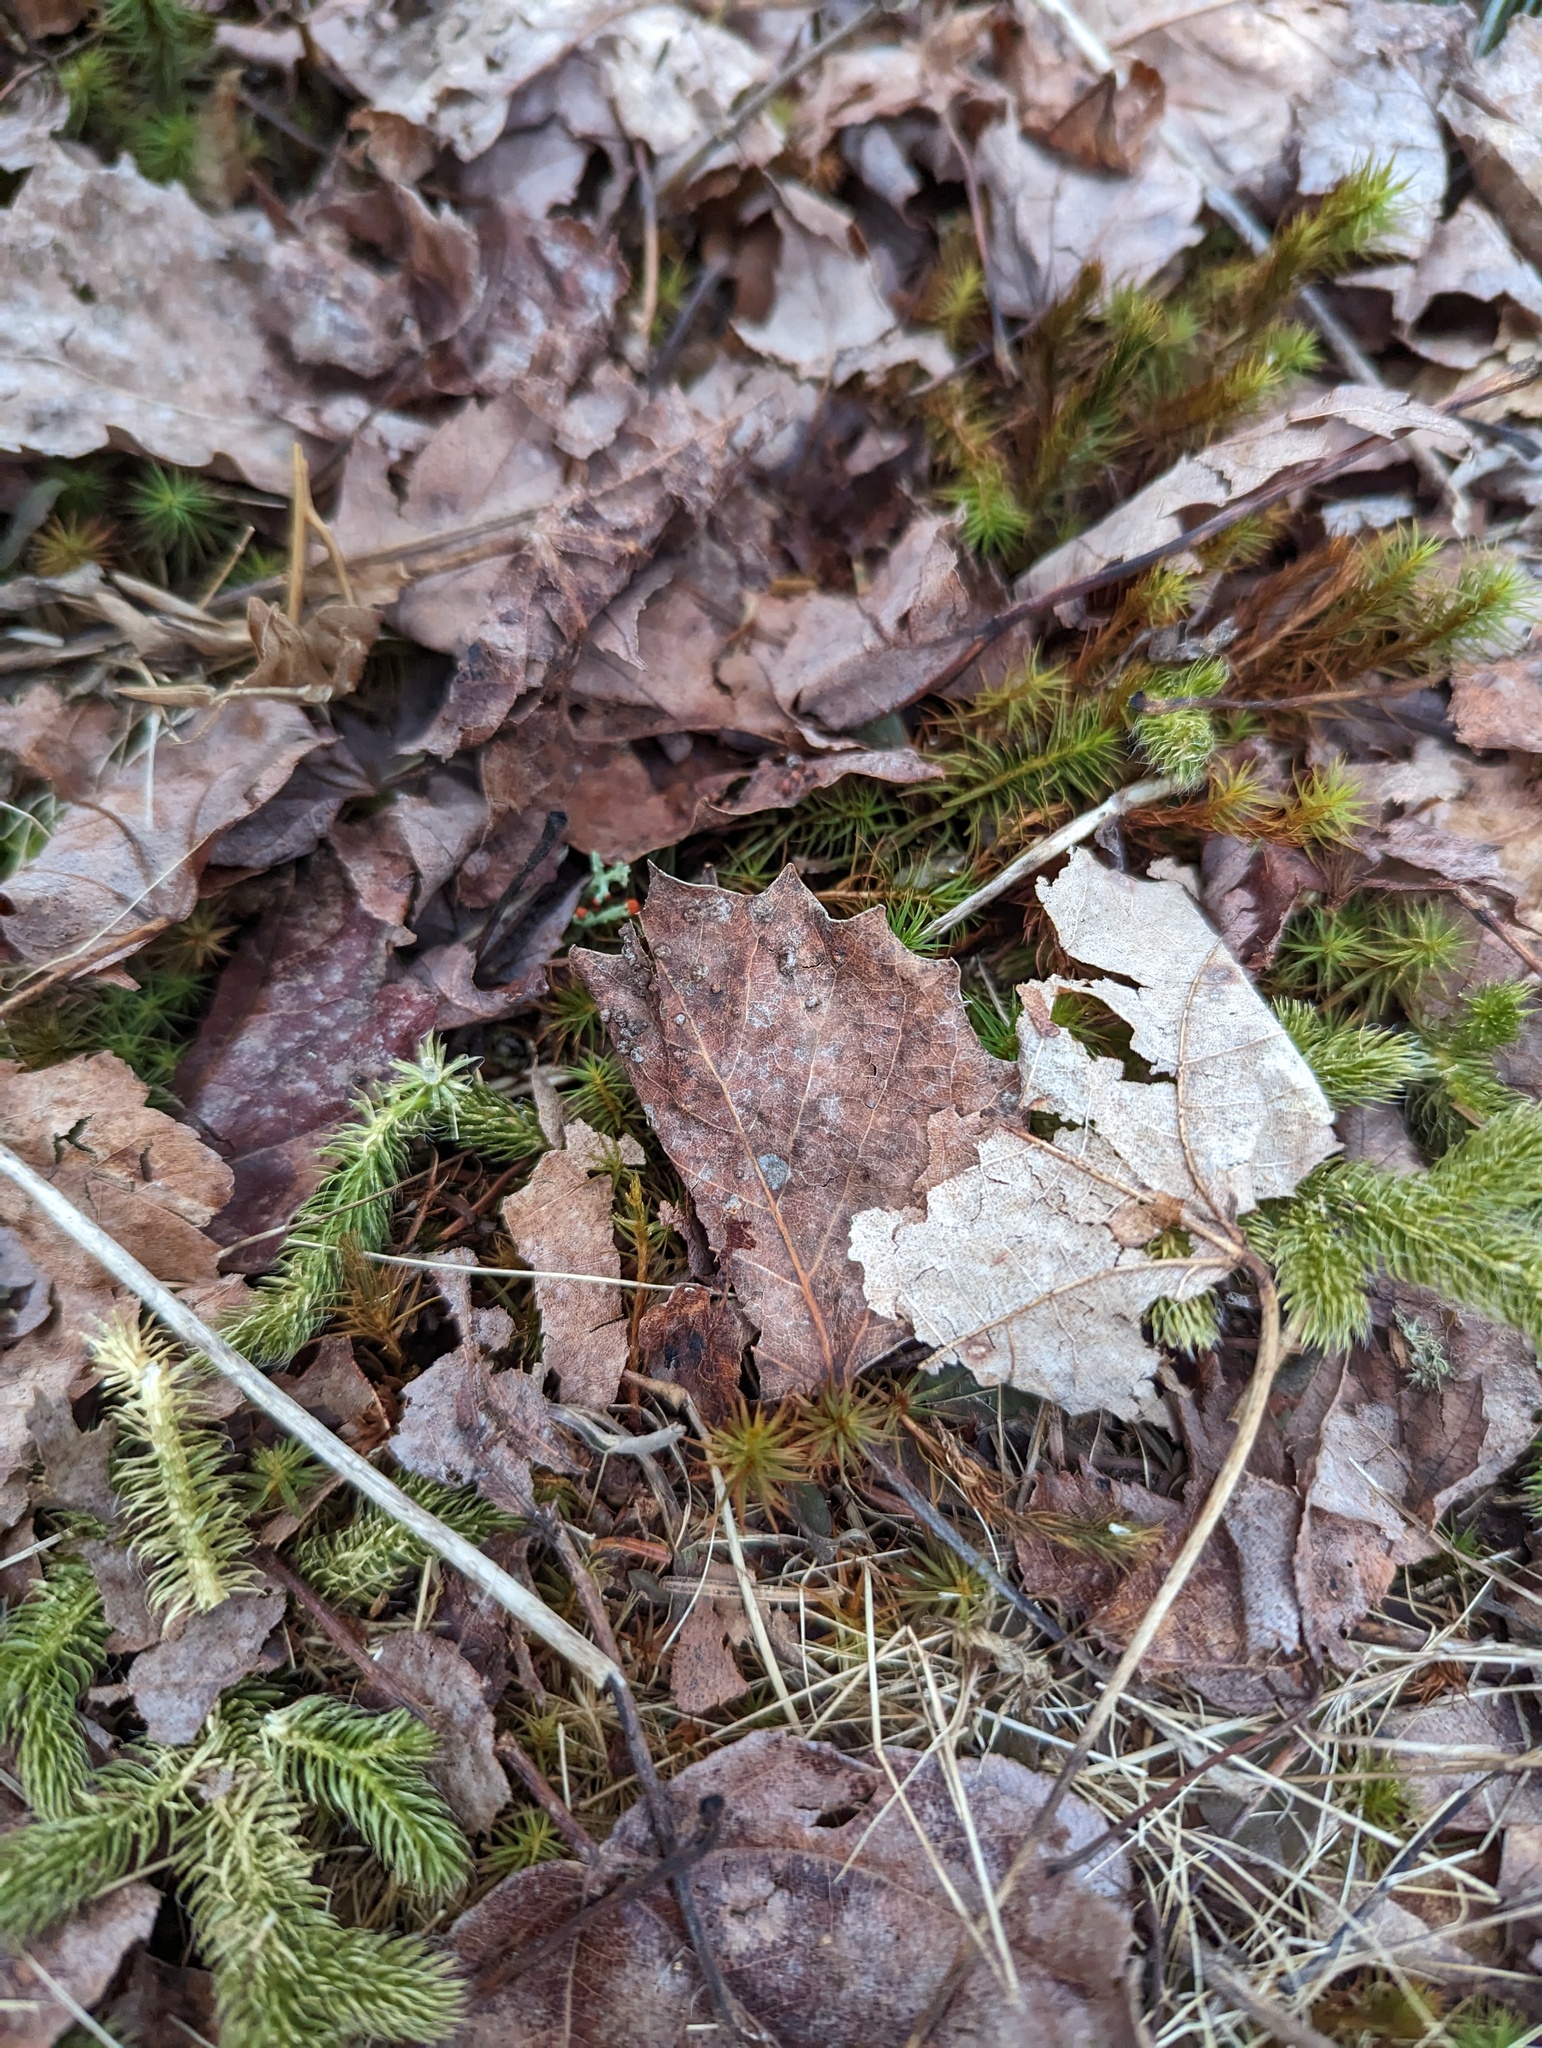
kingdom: Plantae
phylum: Tracheophyta
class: Magnoliopsida
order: Malpighiales
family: Salicaceae
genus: Populus
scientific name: Populus grandidentata
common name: Bigtooth aspen
